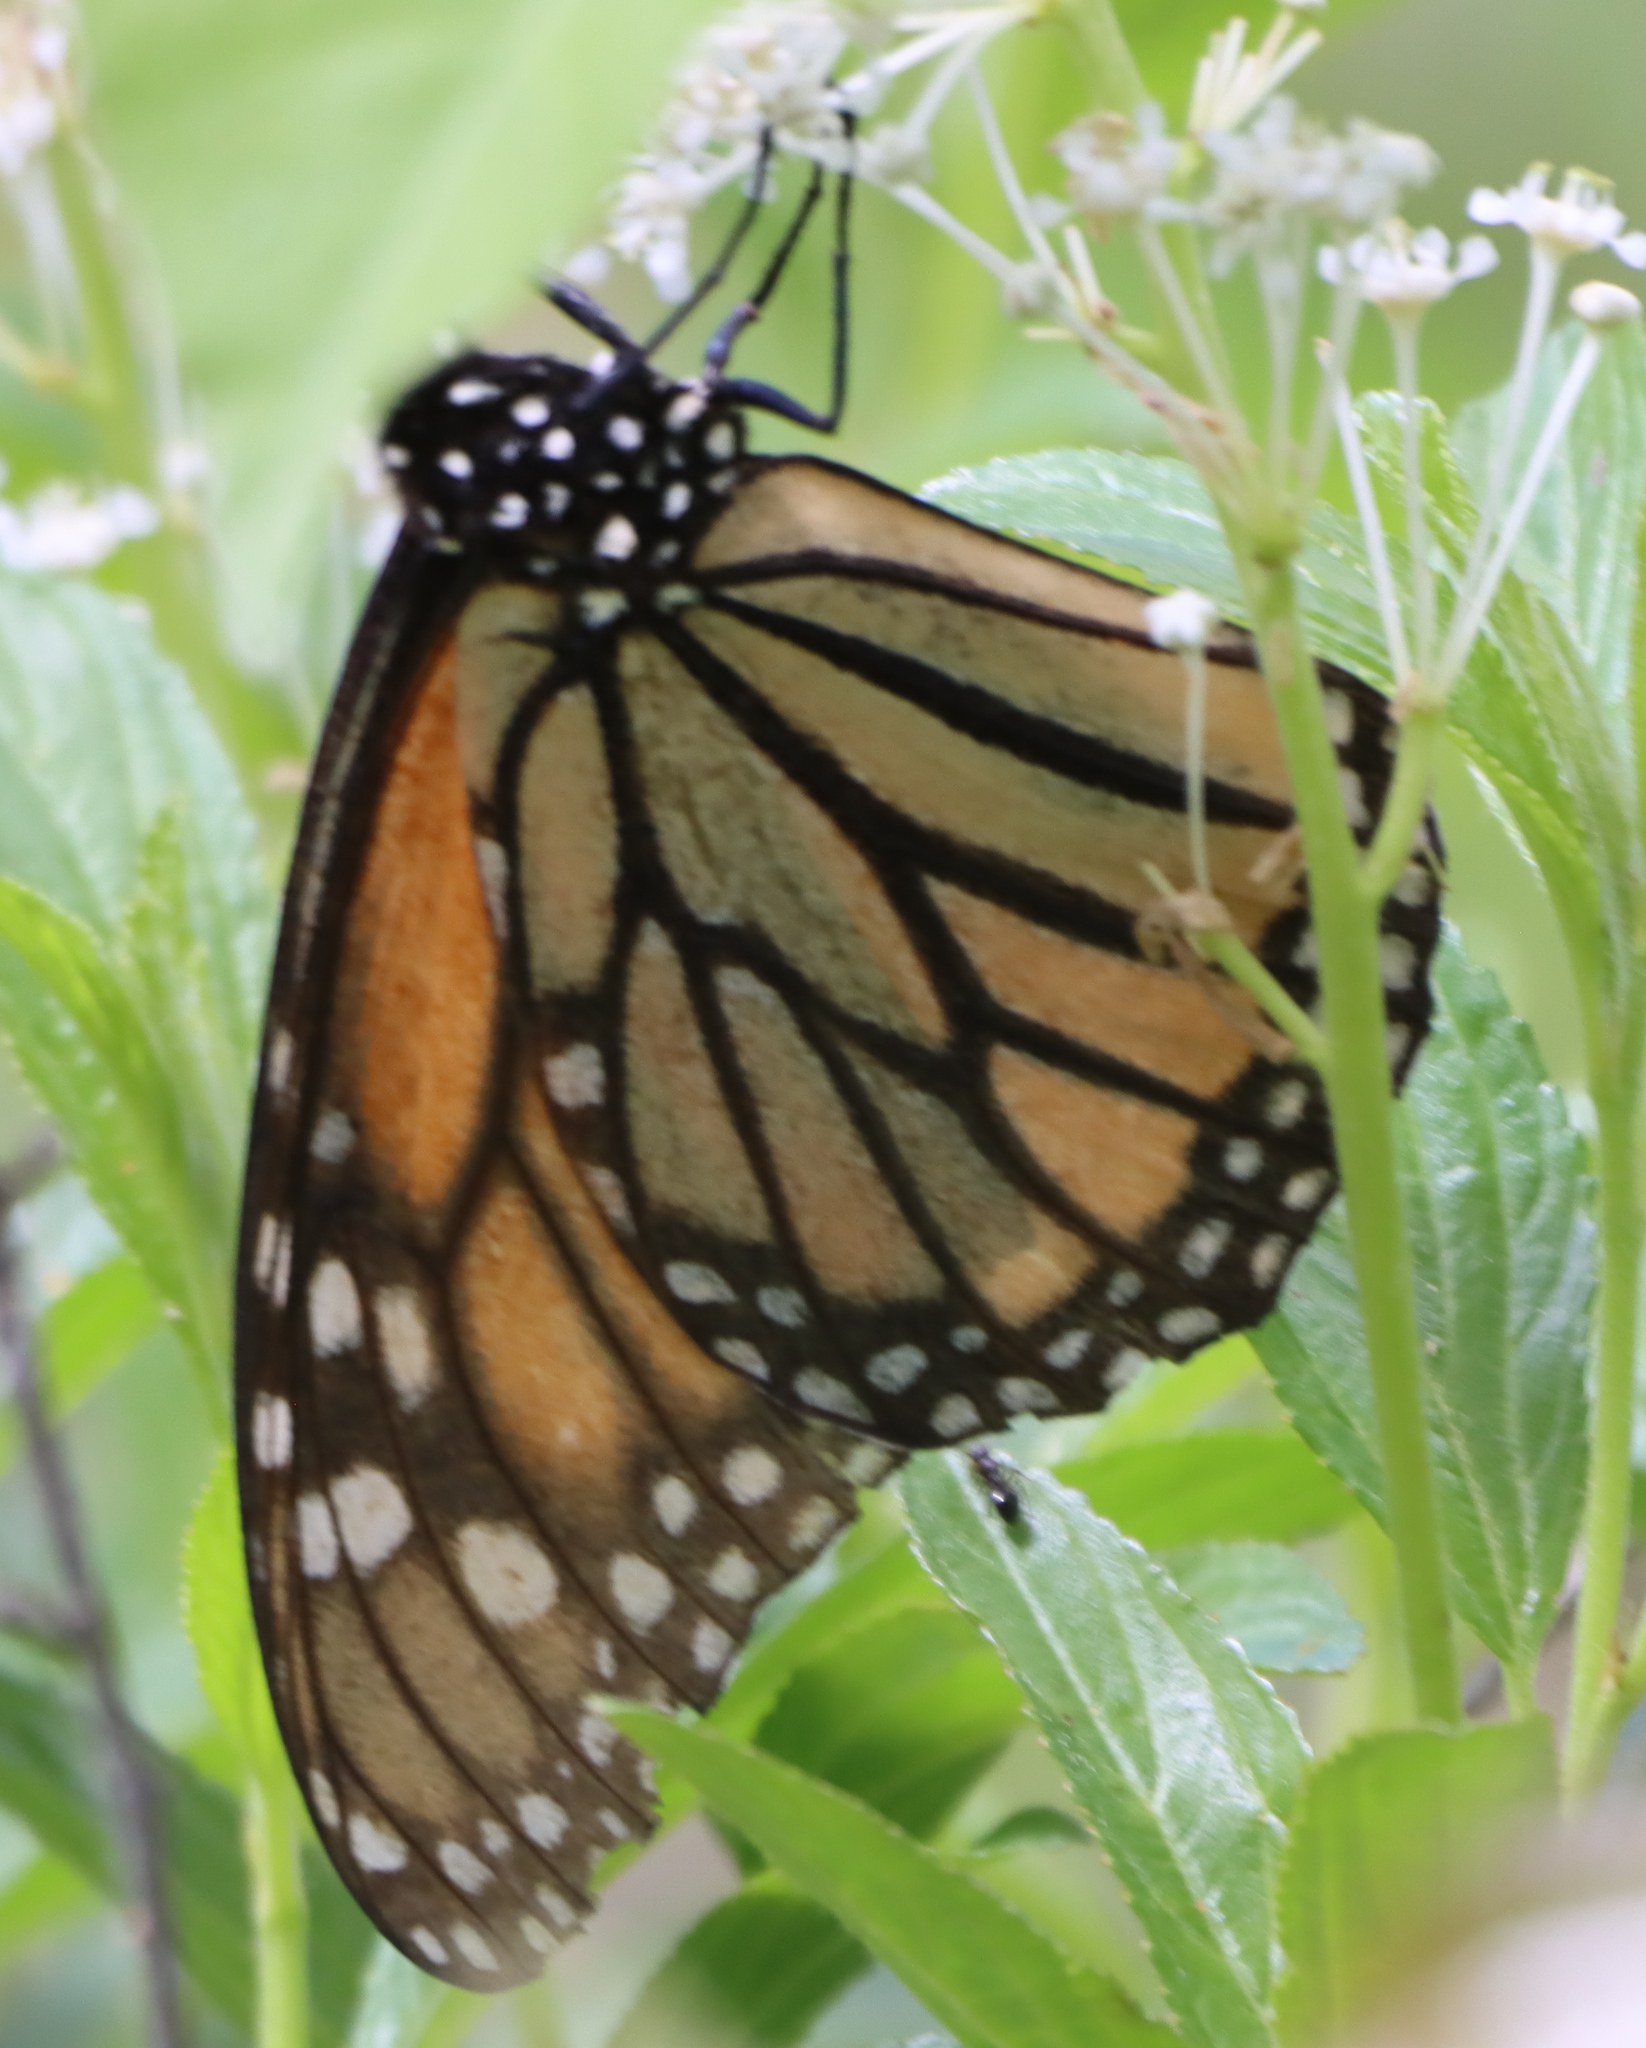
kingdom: Animalia
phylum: Arthropoda
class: Insecta
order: Lepidoptera
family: Nymphalidae
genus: Danaus
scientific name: Danaus plexippus
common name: Monarch
